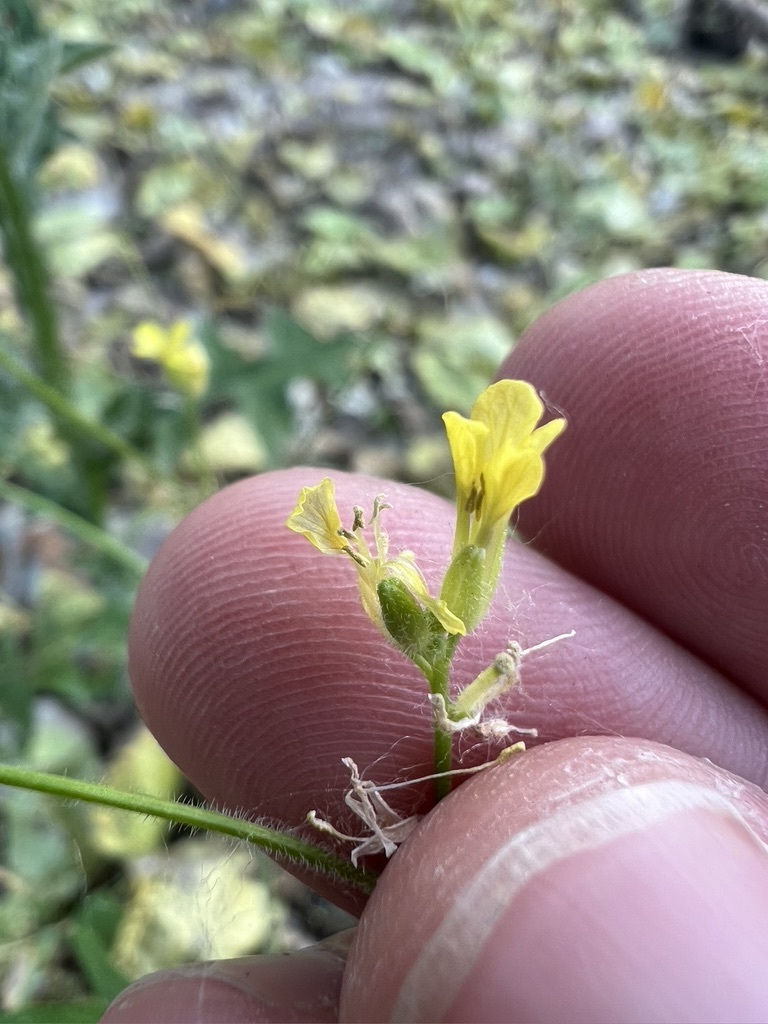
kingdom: Plantae
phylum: Tracheophyta
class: Magnoliopsida
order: Brassicales
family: Brassicaceae
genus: Sisymbrium
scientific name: Sisymbrium orientale
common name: Eastern rocket
